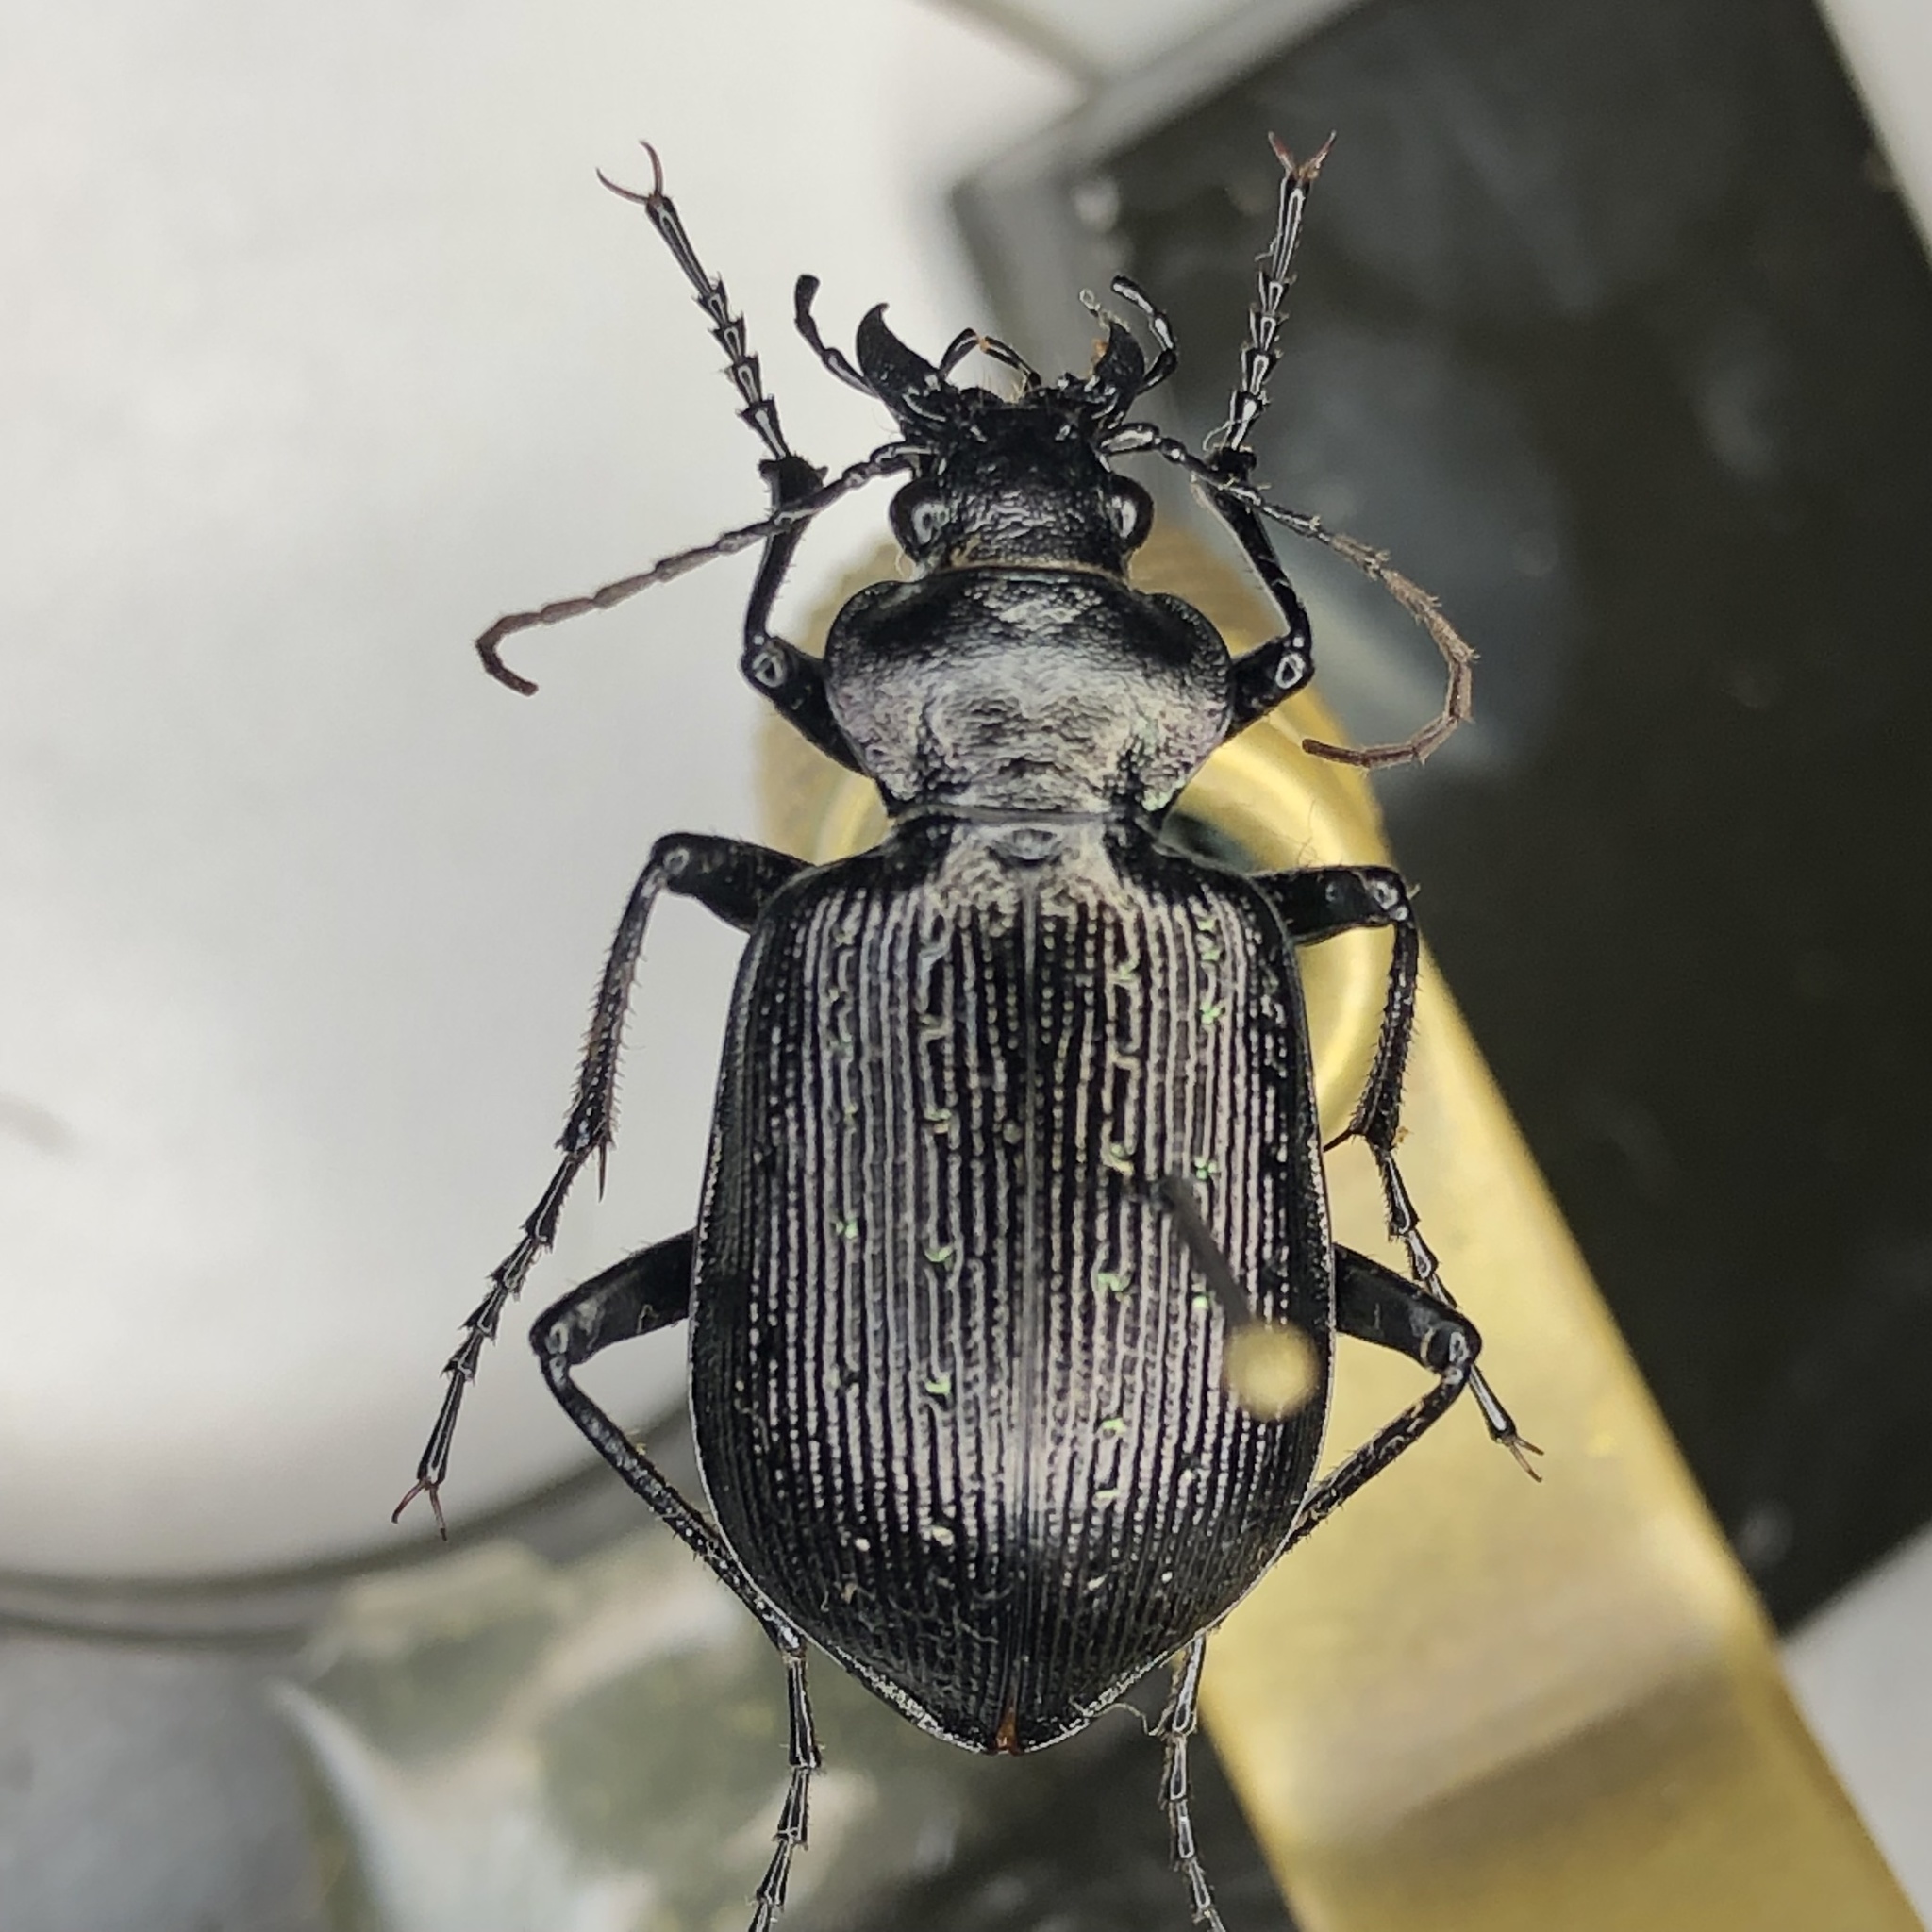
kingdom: Animalia
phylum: Arthropoda
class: Insecta
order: Coleoptera
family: Carabidae
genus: Calosoma
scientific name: Calosoma frigidum
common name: Cold-country caterpillar hunter
